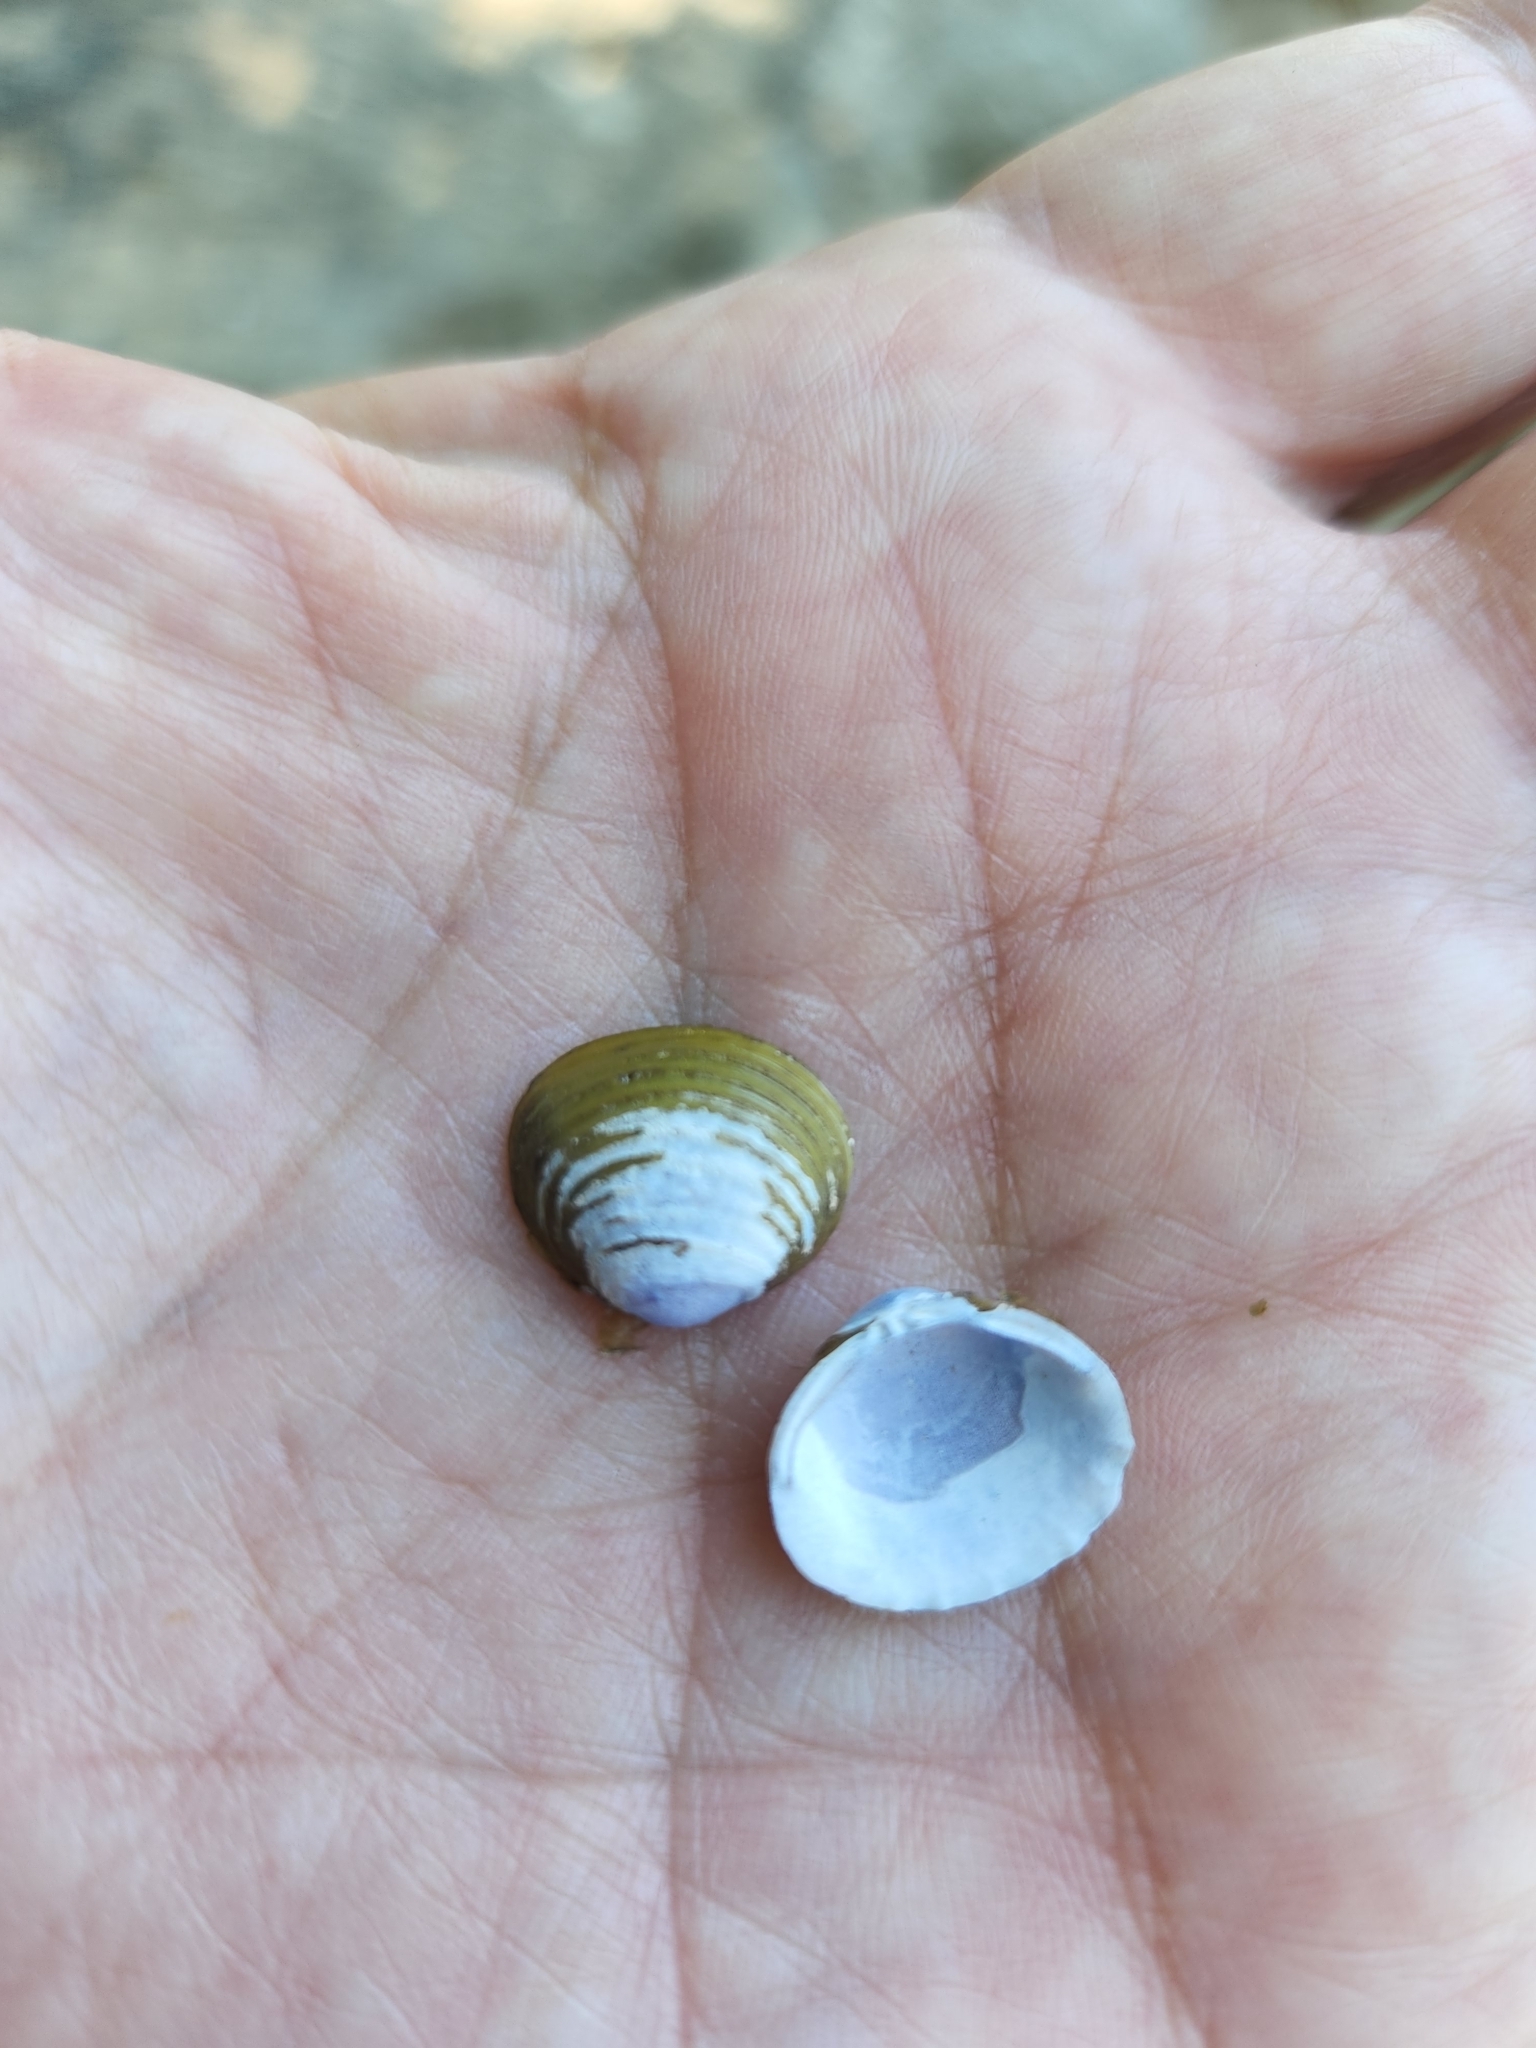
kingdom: Animalia
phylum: Mollusca
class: Bivalvia
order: Venerida
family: Cyrenidae
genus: Corbicula
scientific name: Corbicula fluminea
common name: Asian clam
